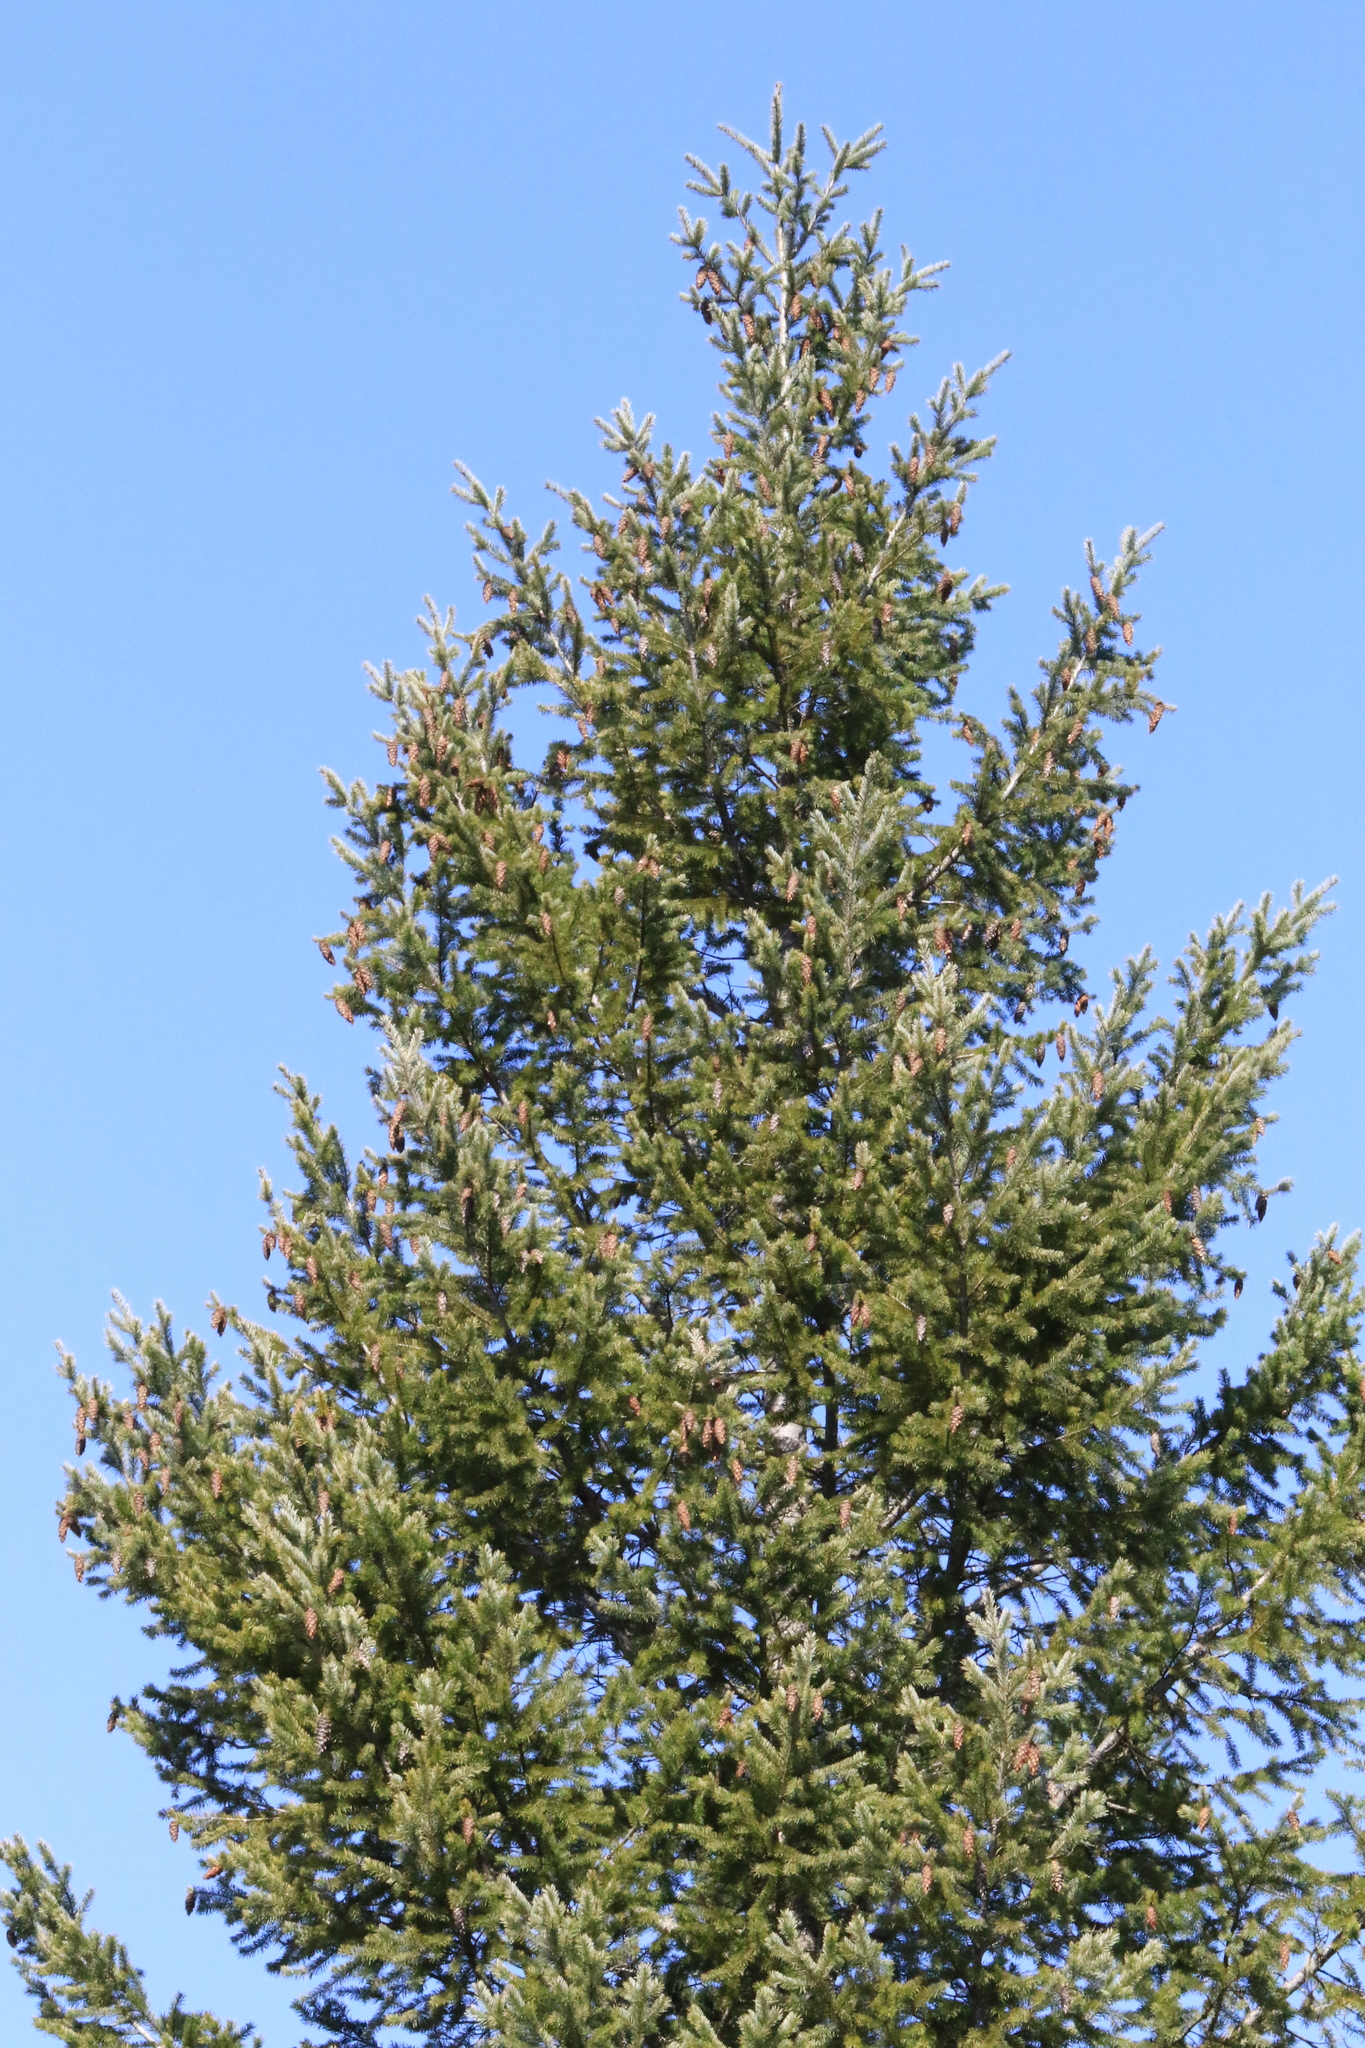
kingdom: Plantae
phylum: Tracheophyta
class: Pinopsida
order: Pinales
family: Pinaceae
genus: Pseudotsuga
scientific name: Pseudotsuga menziesii
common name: Douglas fir
